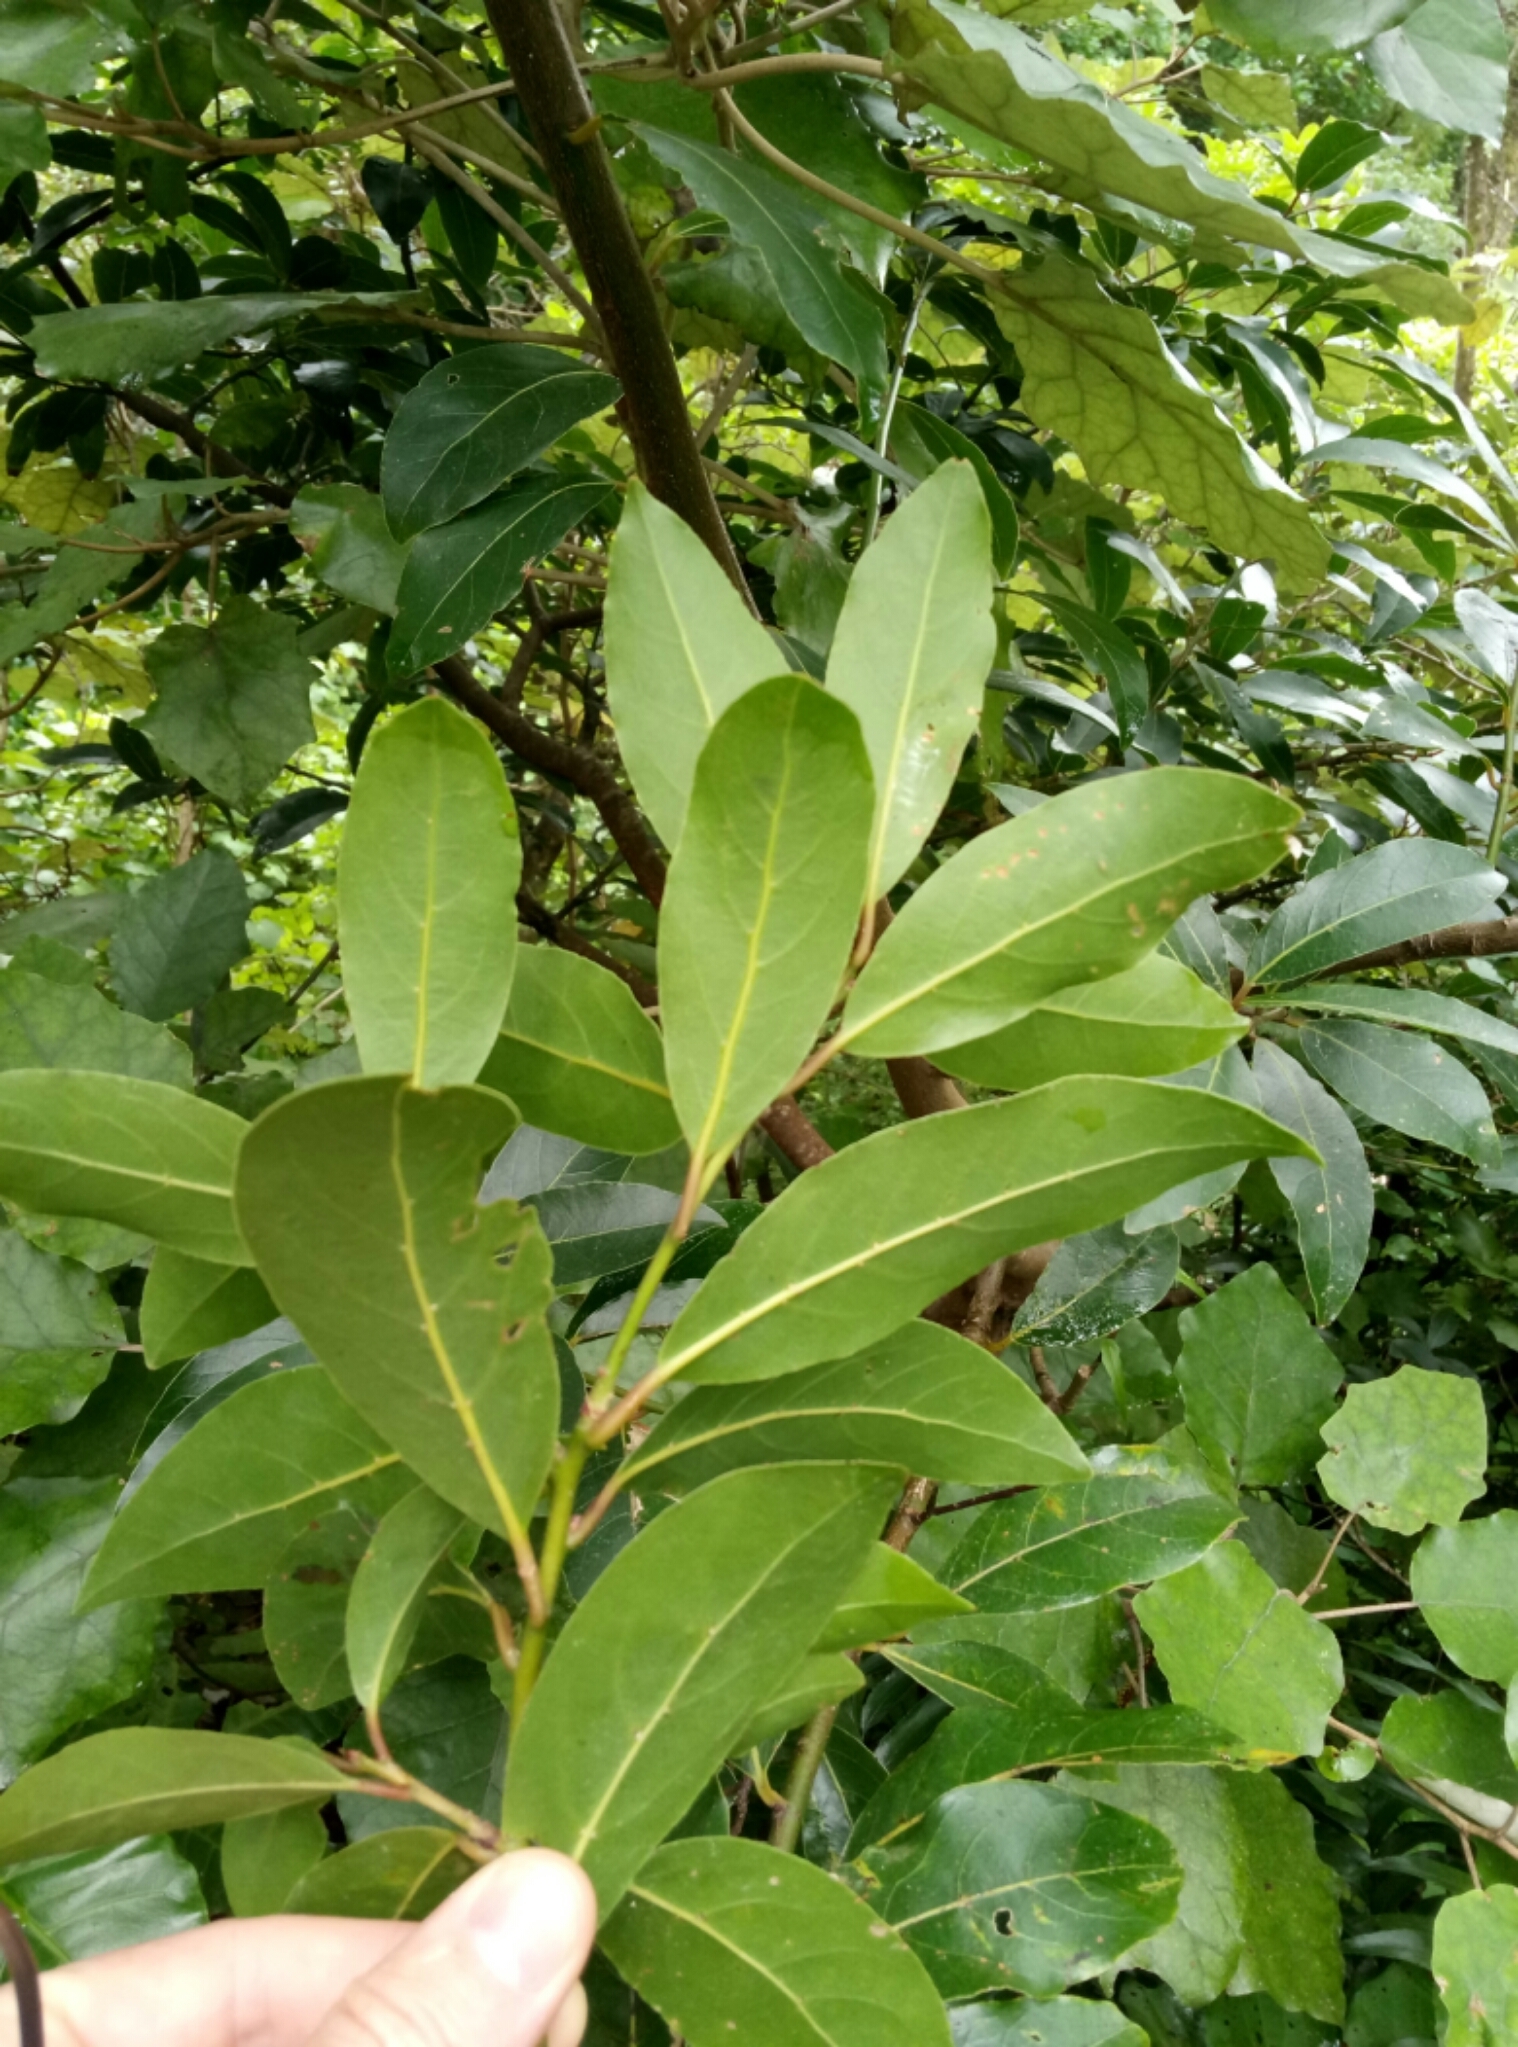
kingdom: Plantae
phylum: Tracheophyta
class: Magnoliopsida
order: Laurales
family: Lauraceae
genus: Laurus
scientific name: Laurus nobilis
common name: Bay
